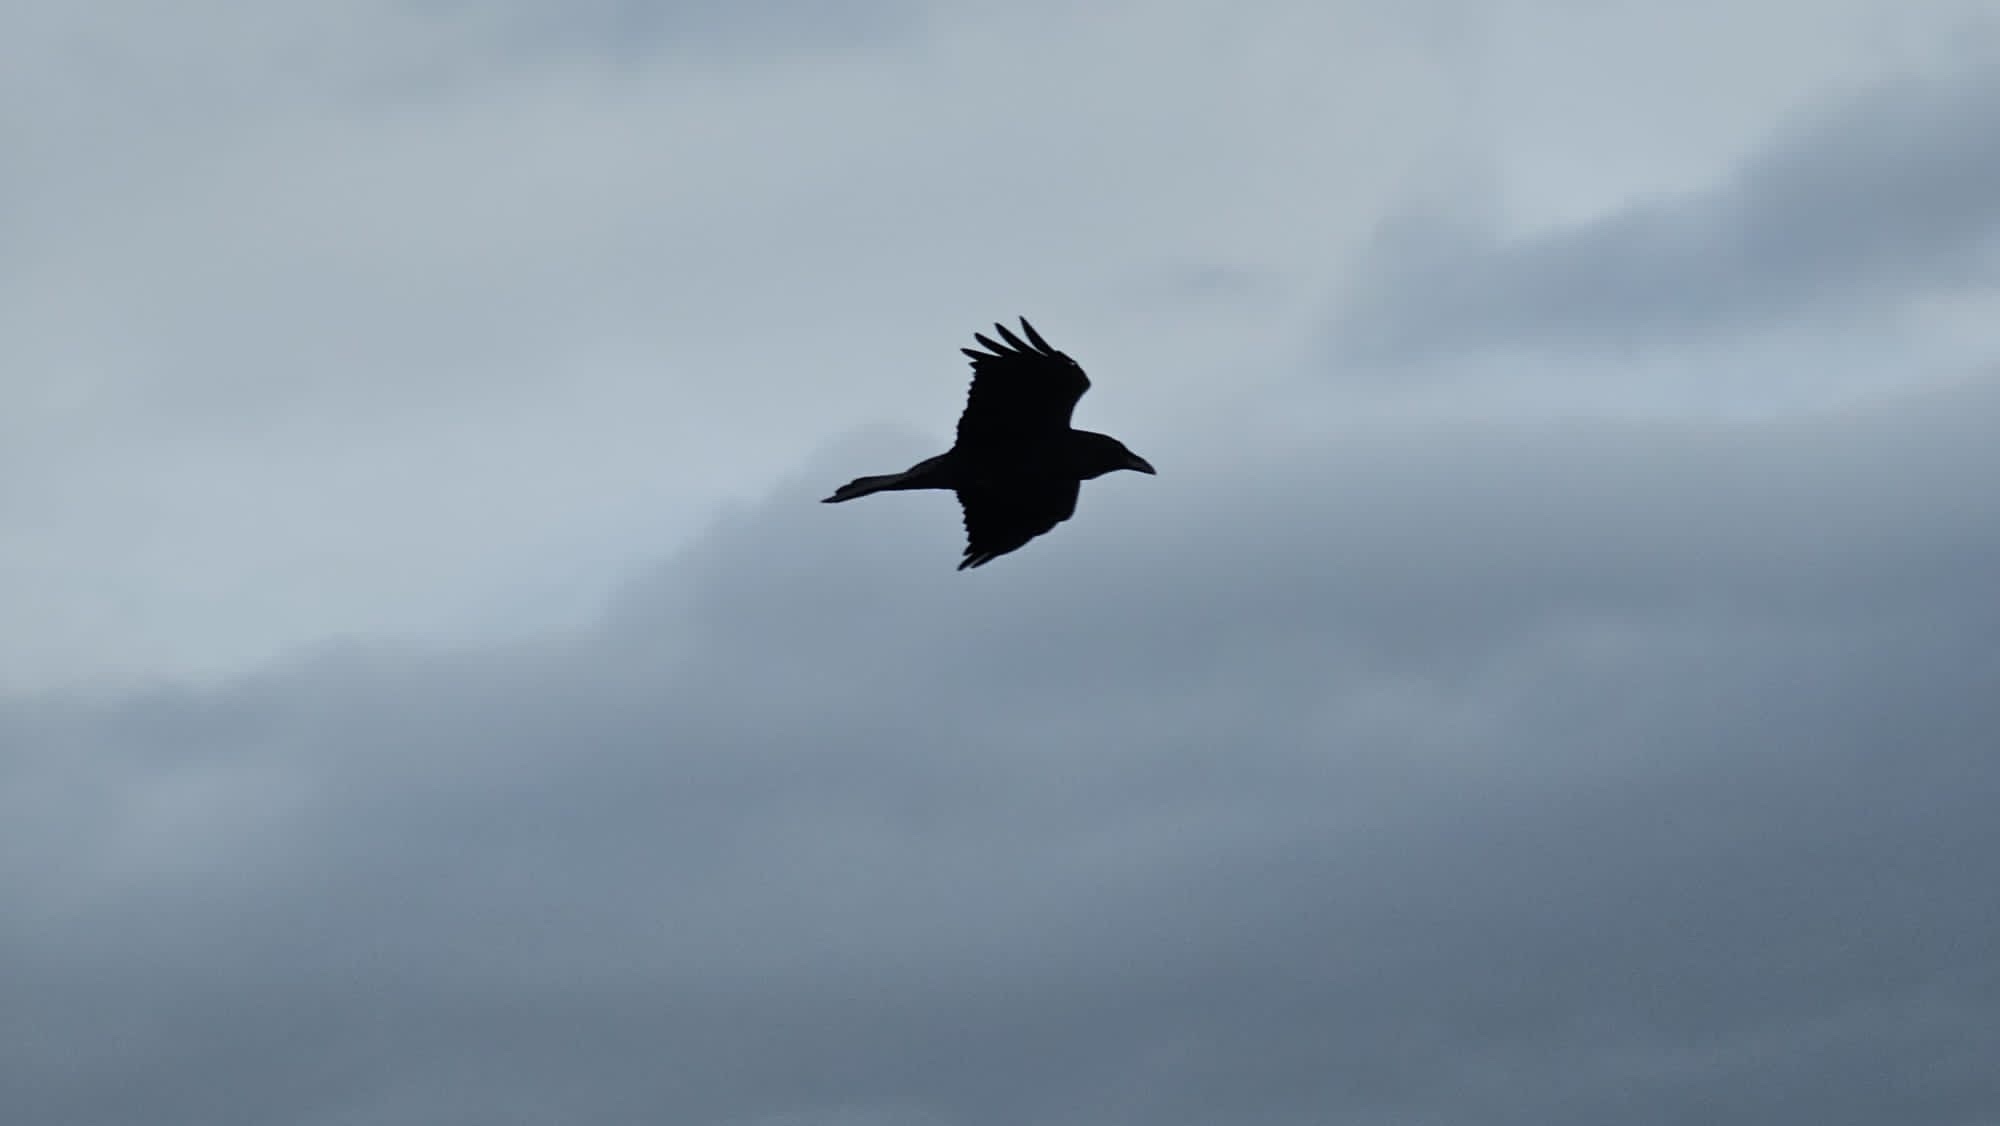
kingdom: Animalia
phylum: Chordata
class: Aves
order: Passeriformes
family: Corvidae
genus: Corvus
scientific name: Corvus corax
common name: Common raven
